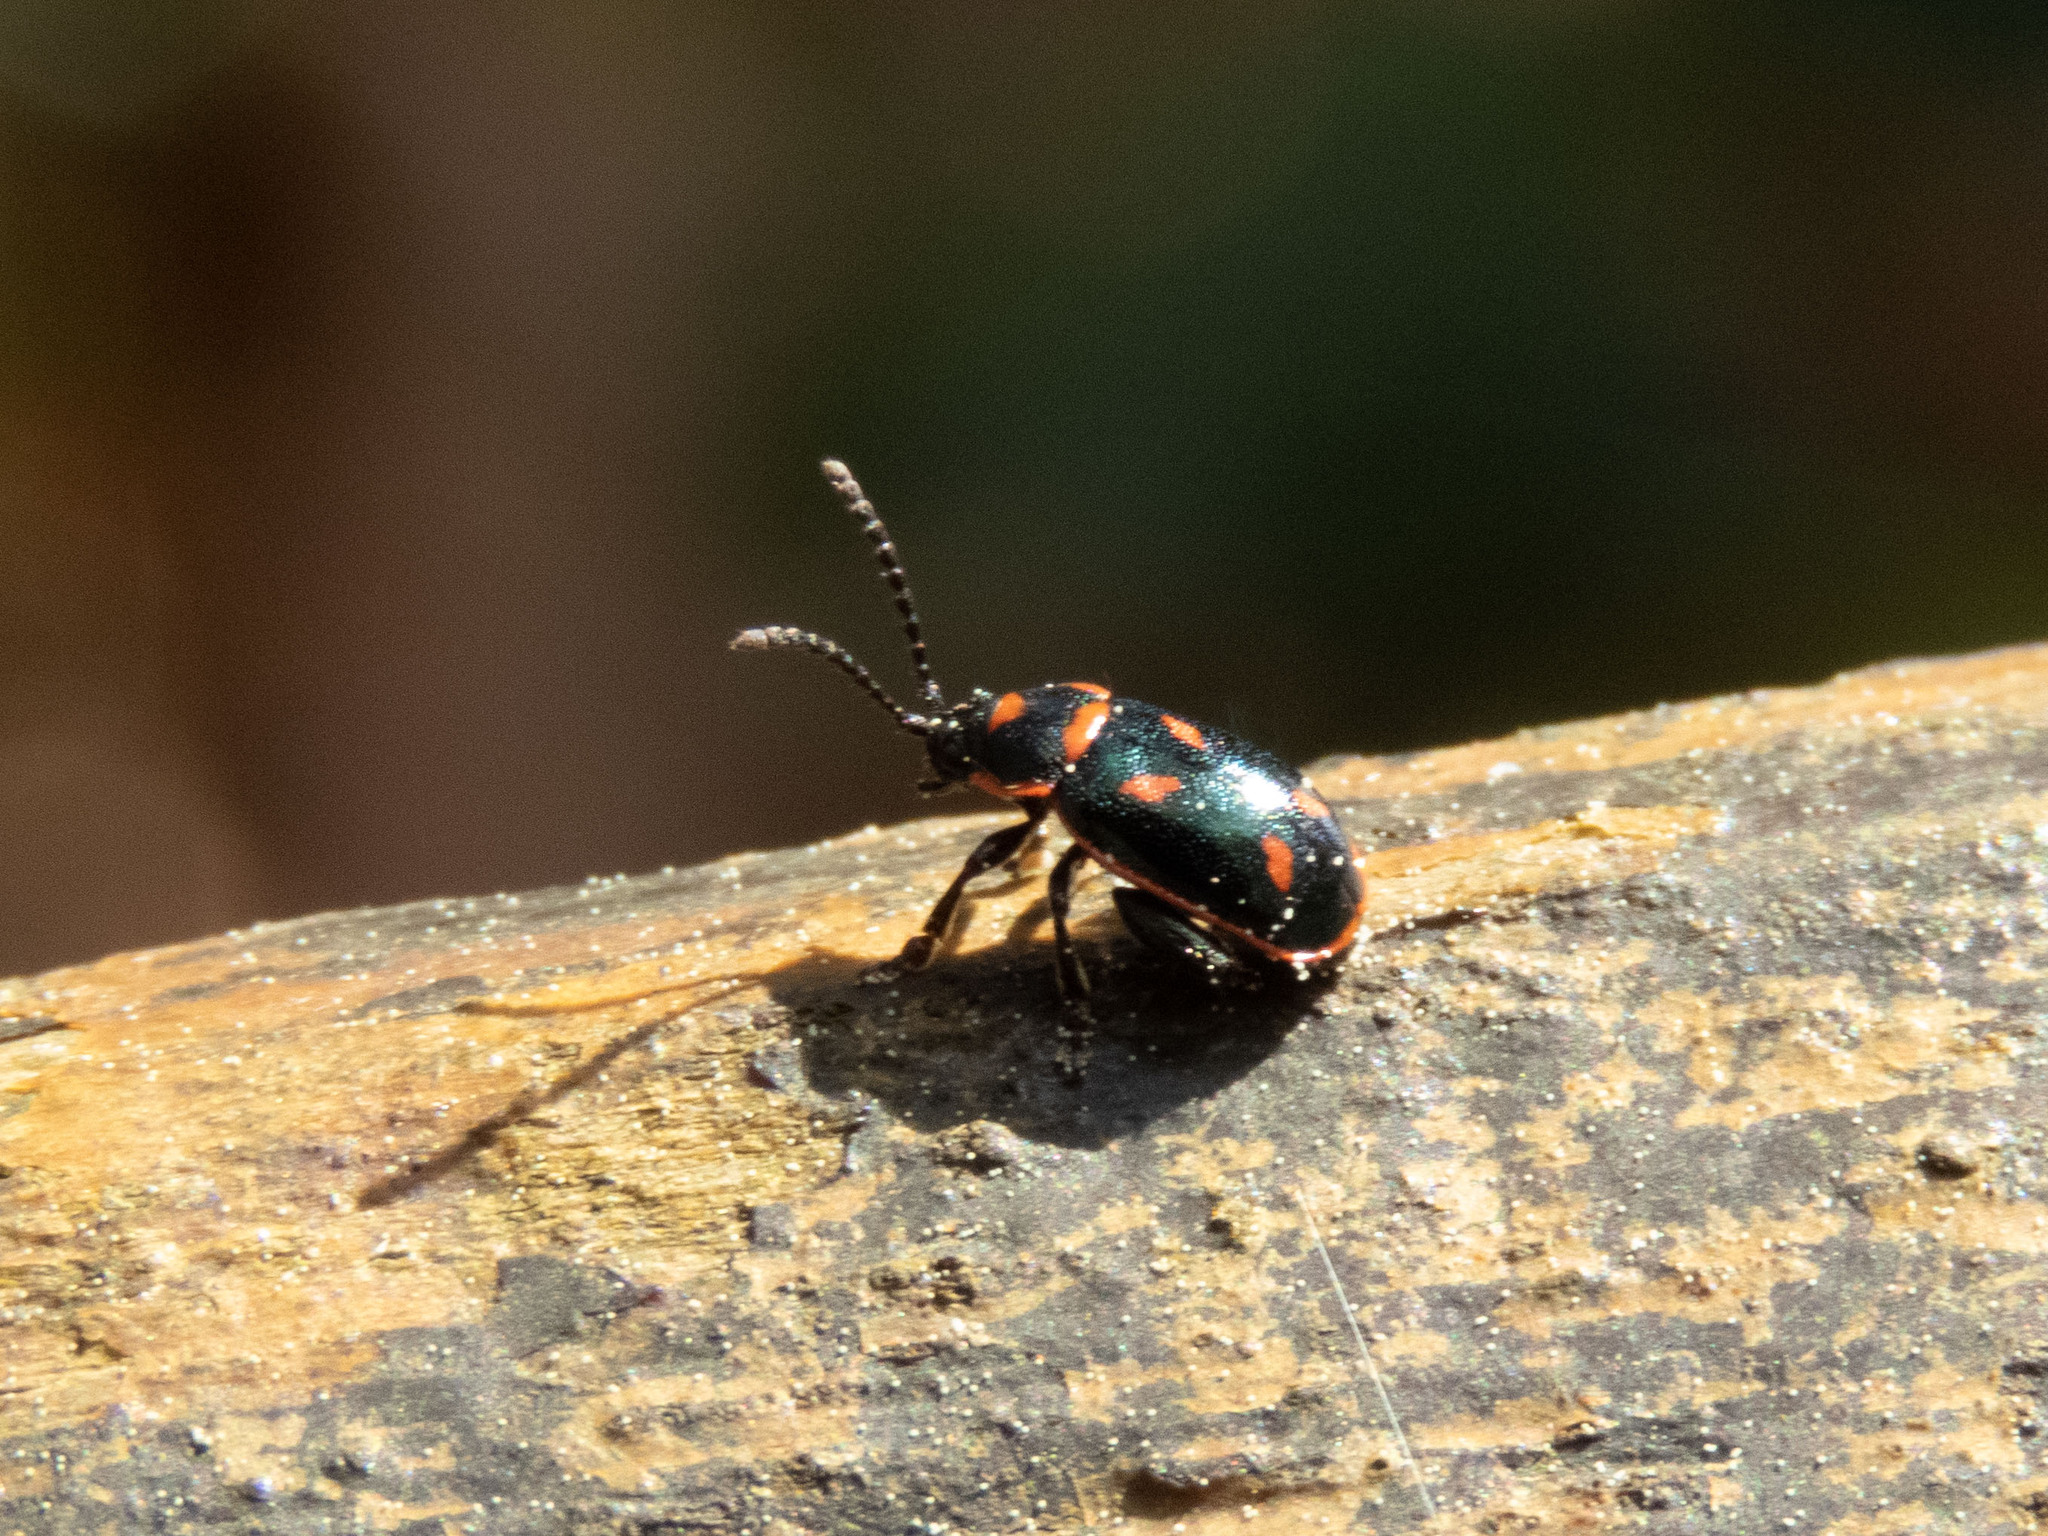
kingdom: Animalia
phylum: Arthropoda
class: Insecta
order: Coleoptera
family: Chrysomelidae
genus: Oedionychis
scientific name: Oedionychis cincta
